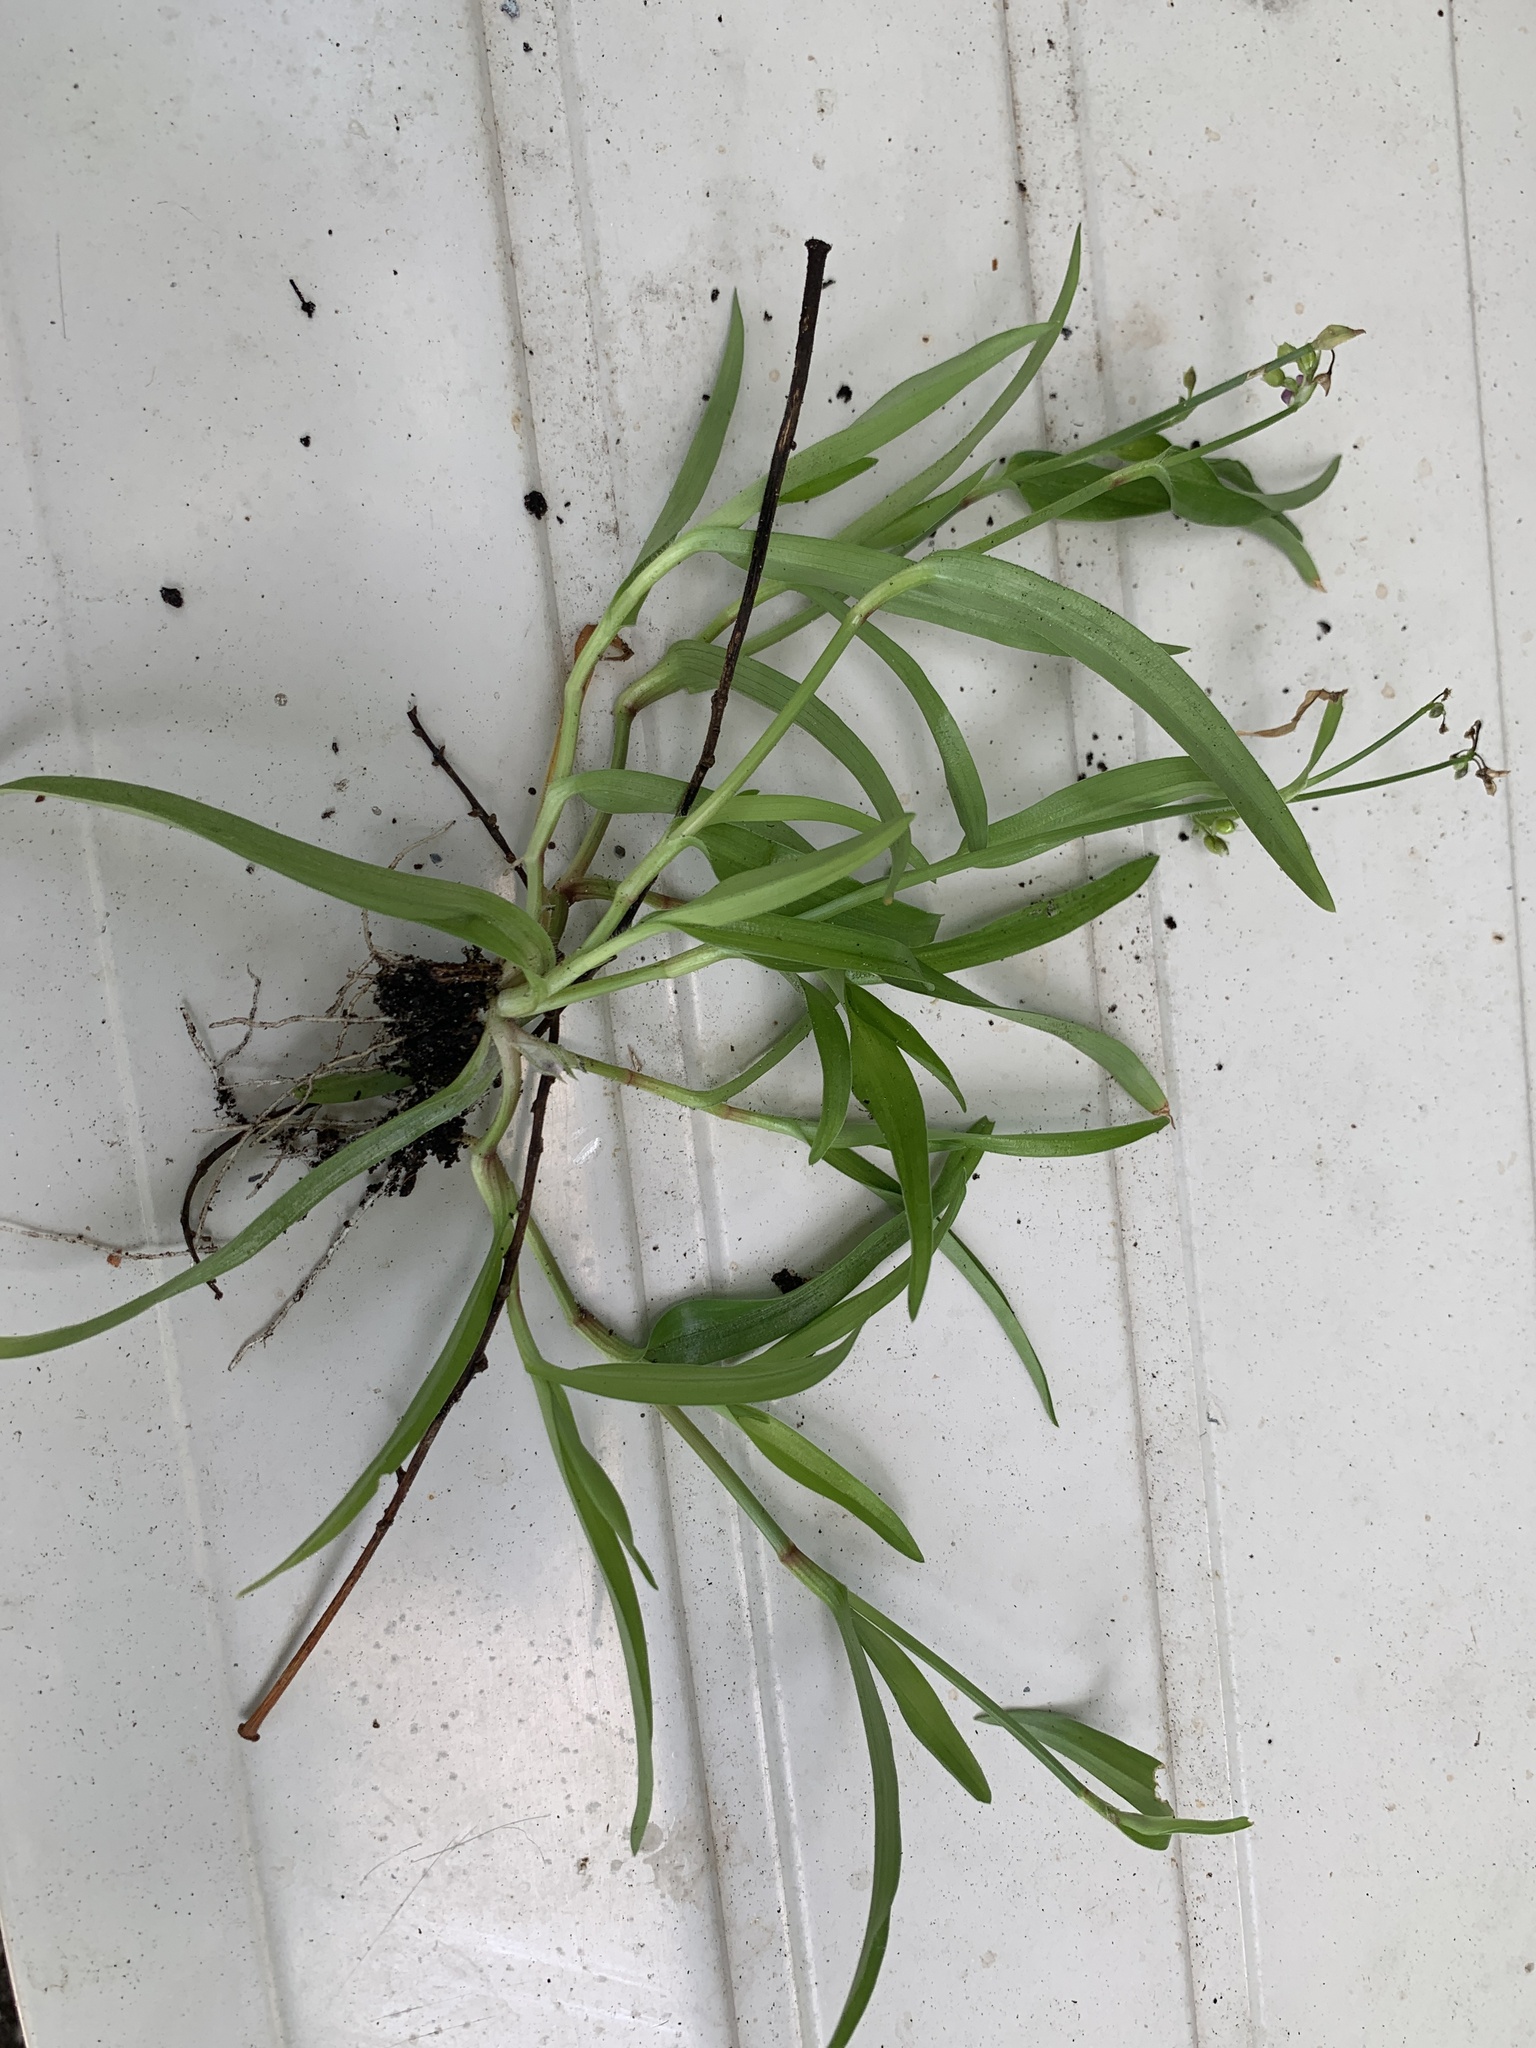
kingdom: Plantae
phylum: Tracheophyta
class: Liliopsida
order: Commelinales
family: Commelinaceae
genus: Murdannia
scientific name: Murdannia nudiflora
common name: Nakedstem dewflower
